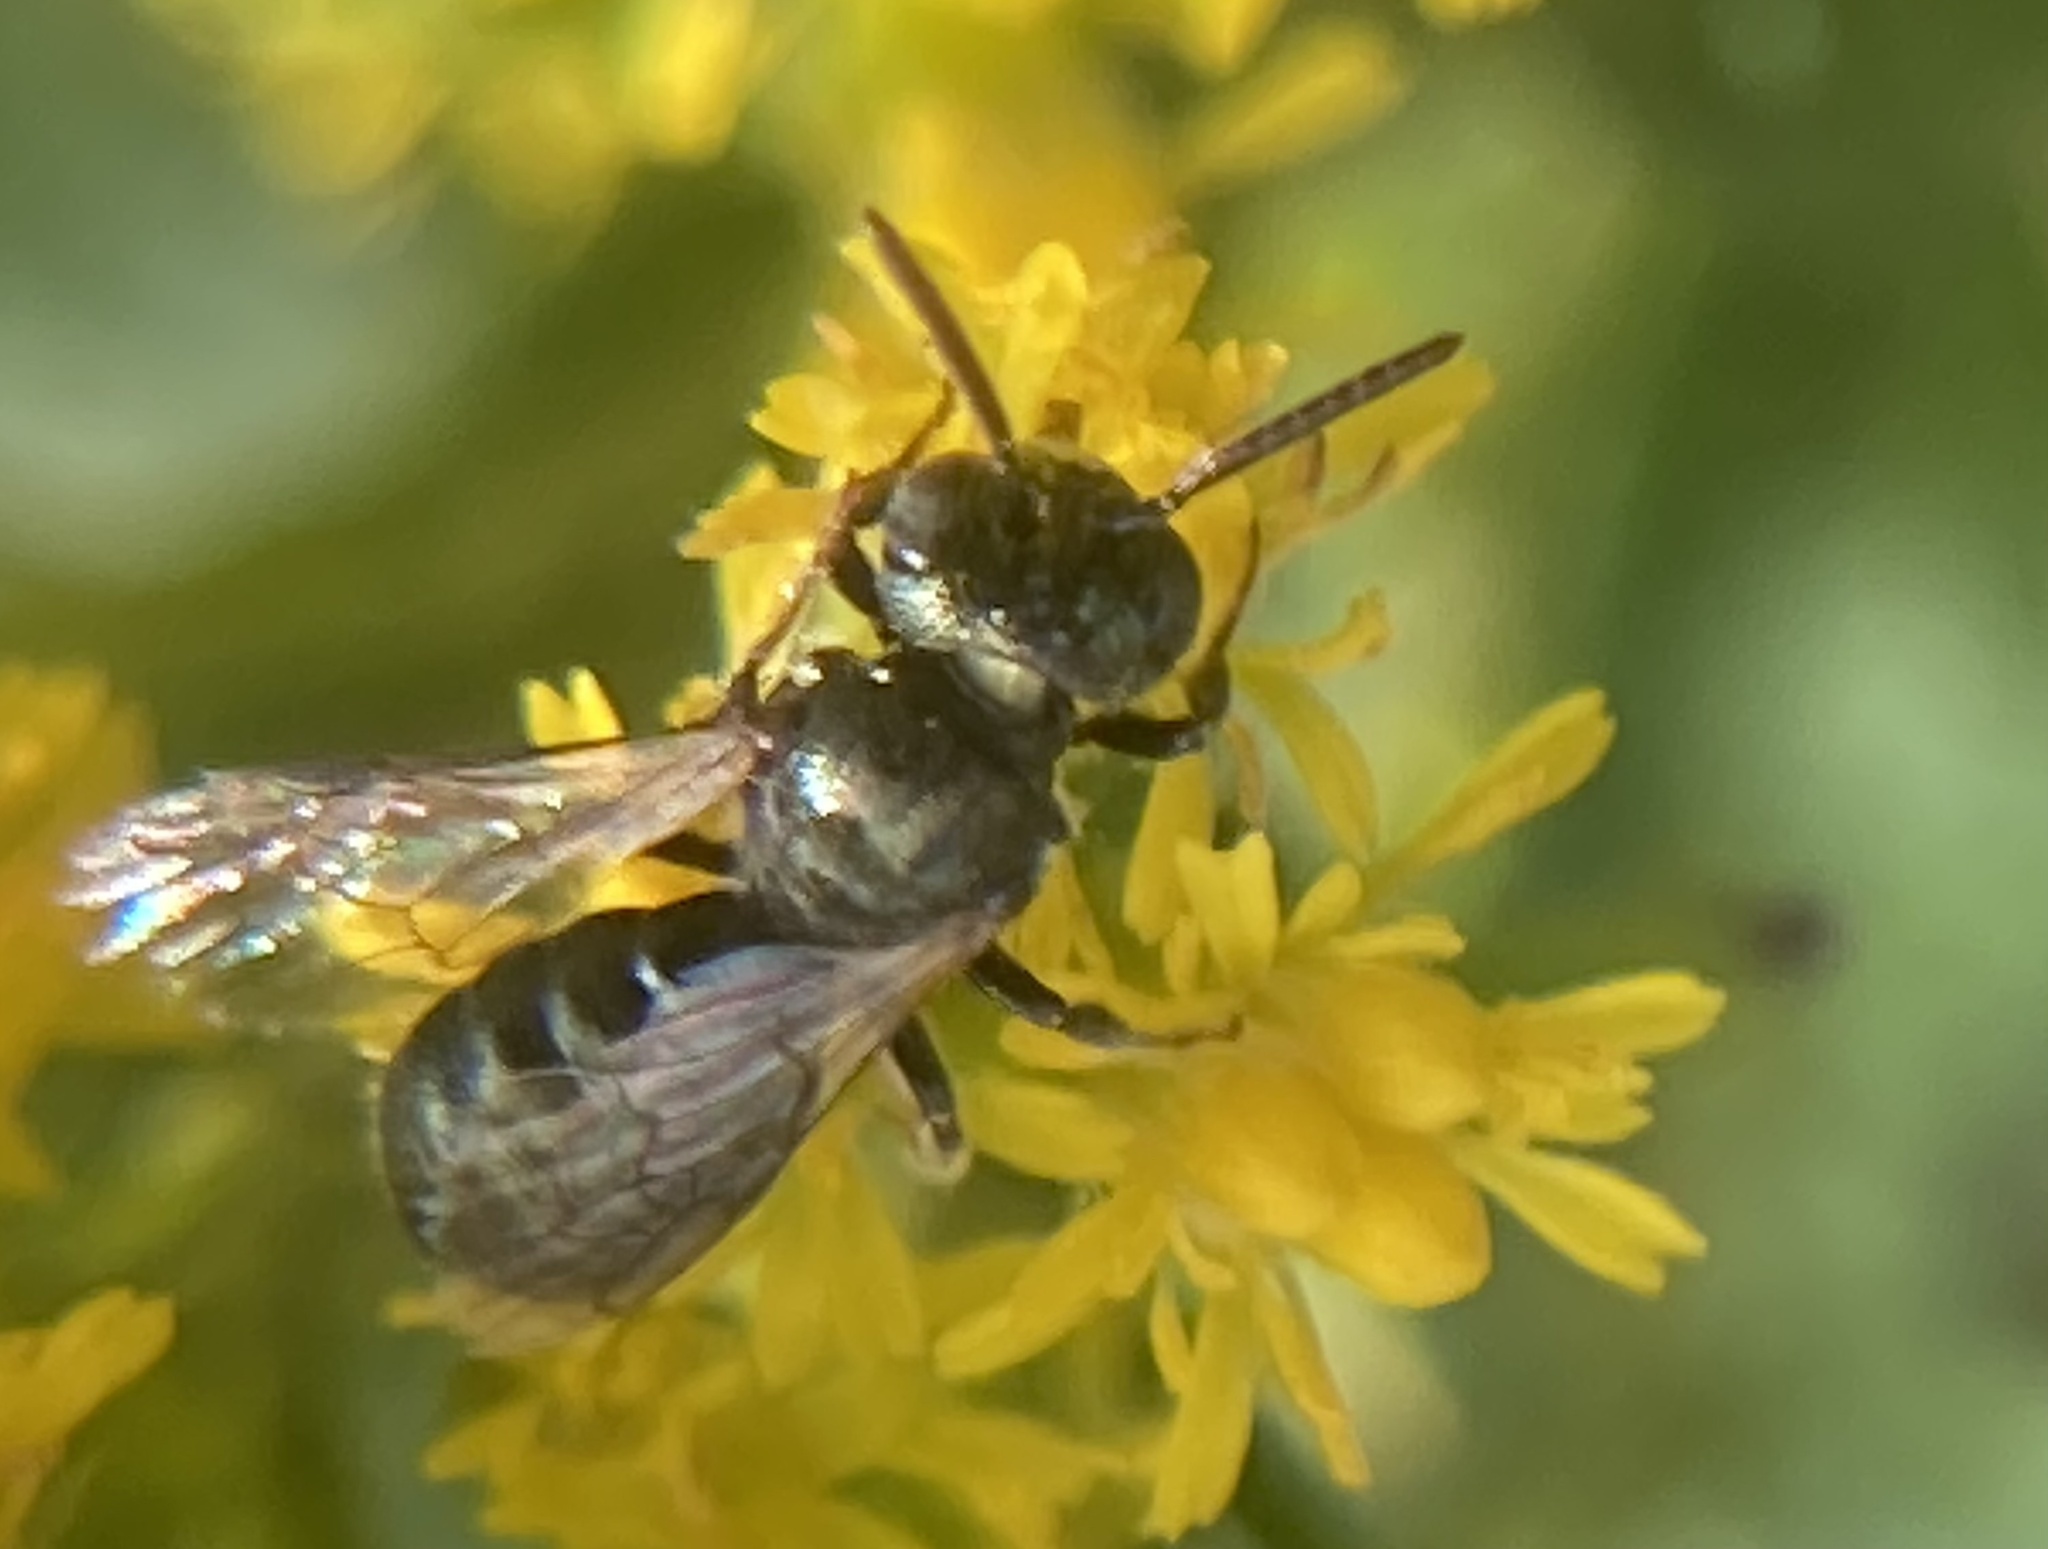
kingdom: Animalia
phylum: Arthropoda
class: Insecta
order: Hymenoptera
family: Apidae
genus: Zadontomerus
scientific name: Zadontomerus
